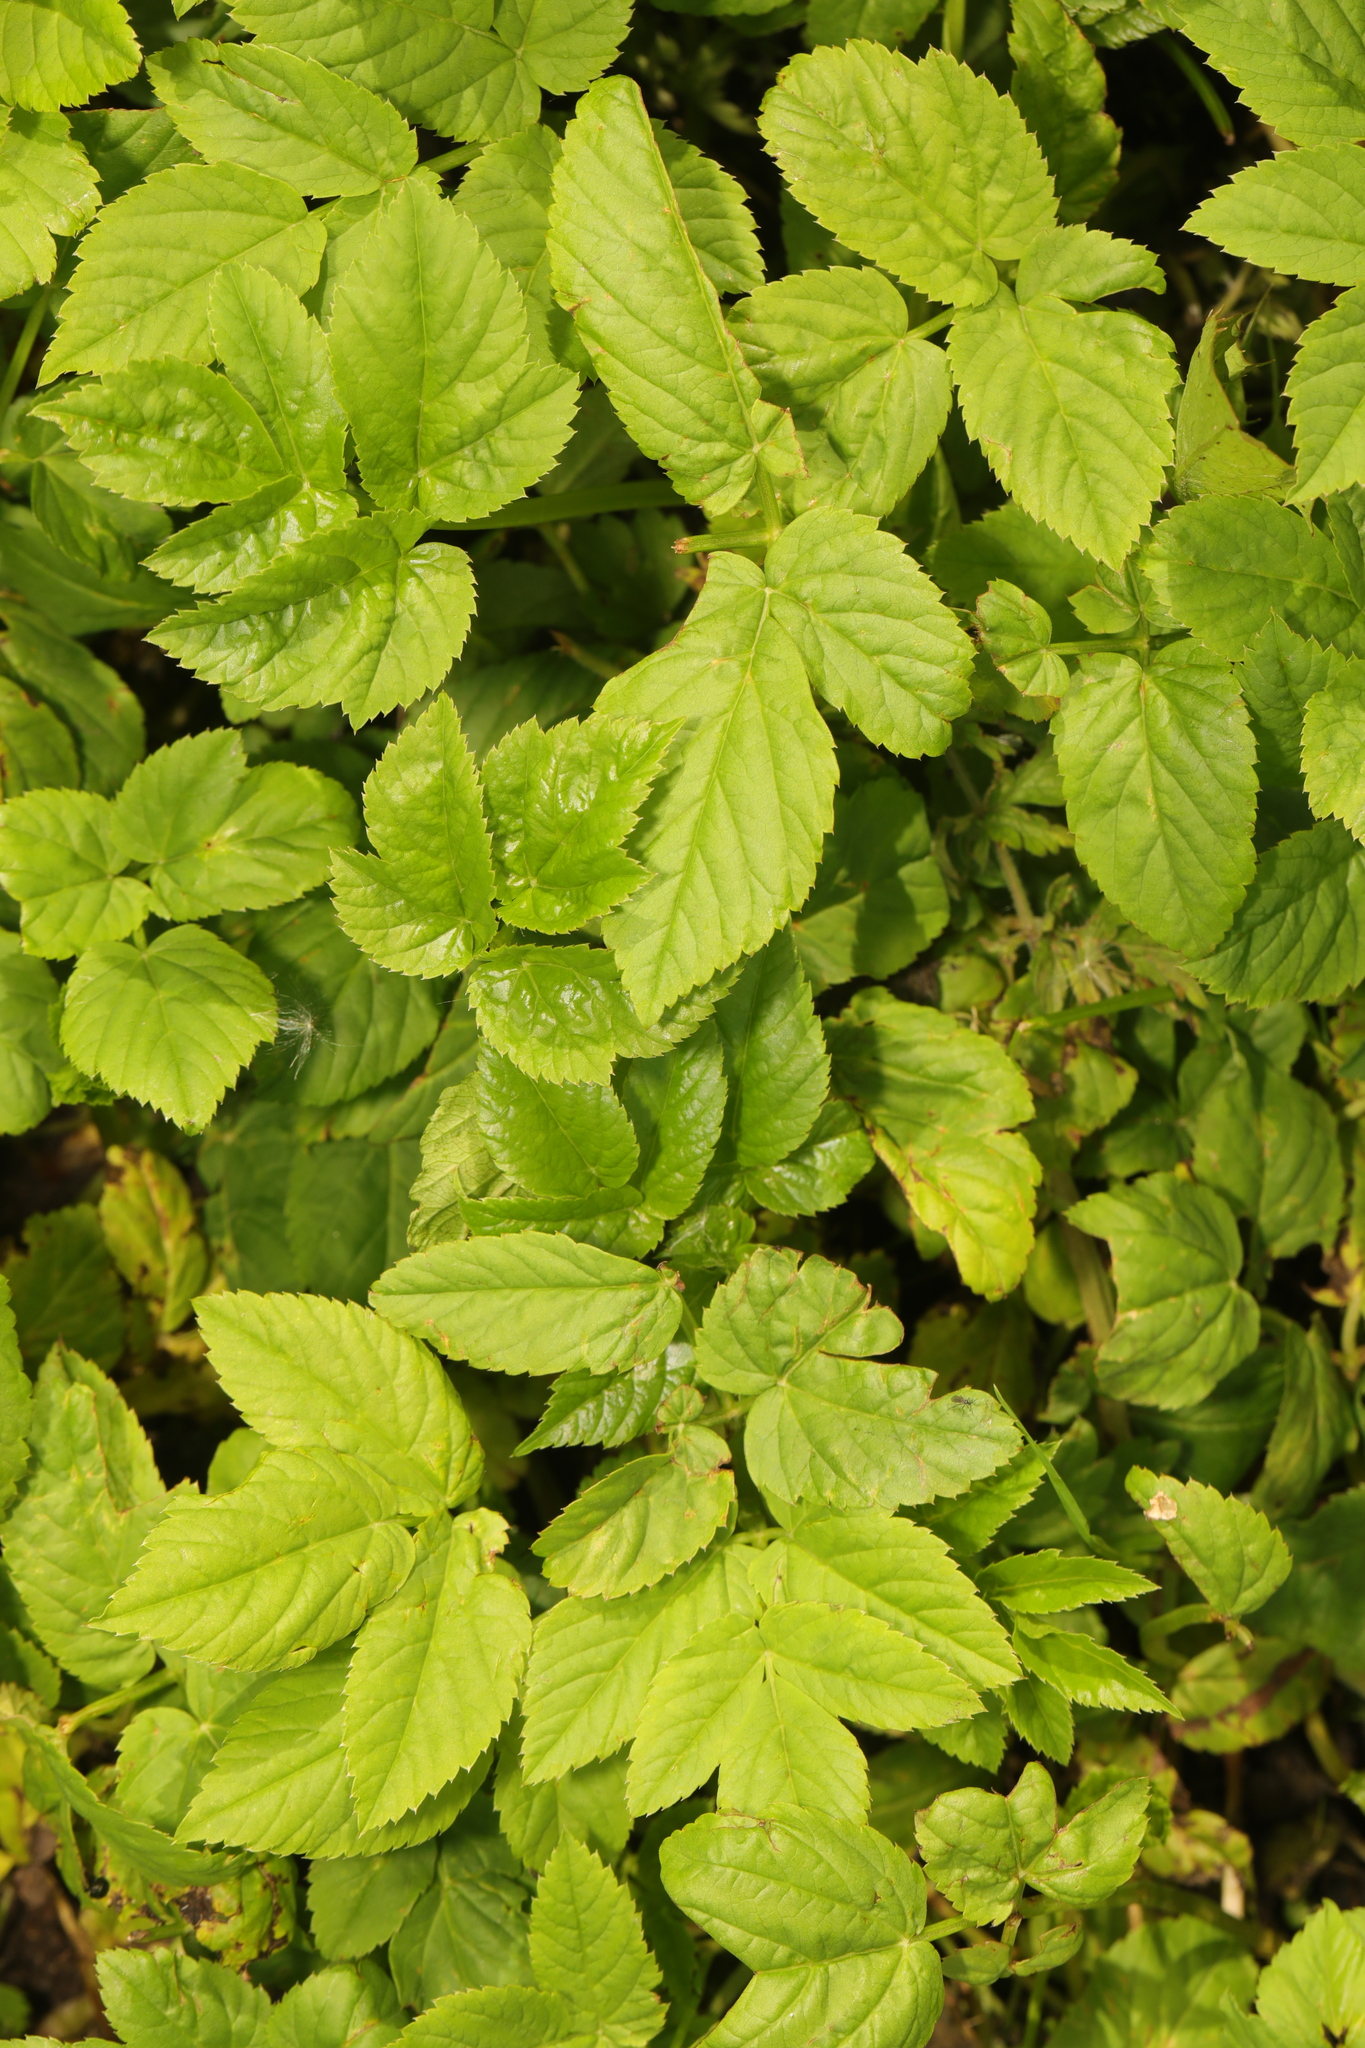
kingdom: Plantae
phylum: Tracheophyta
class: Magnoliopsida
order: Apiales
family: Apiaceae
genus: Aegopodium
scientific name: Aegopodium podagraria
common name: Ground-elder
